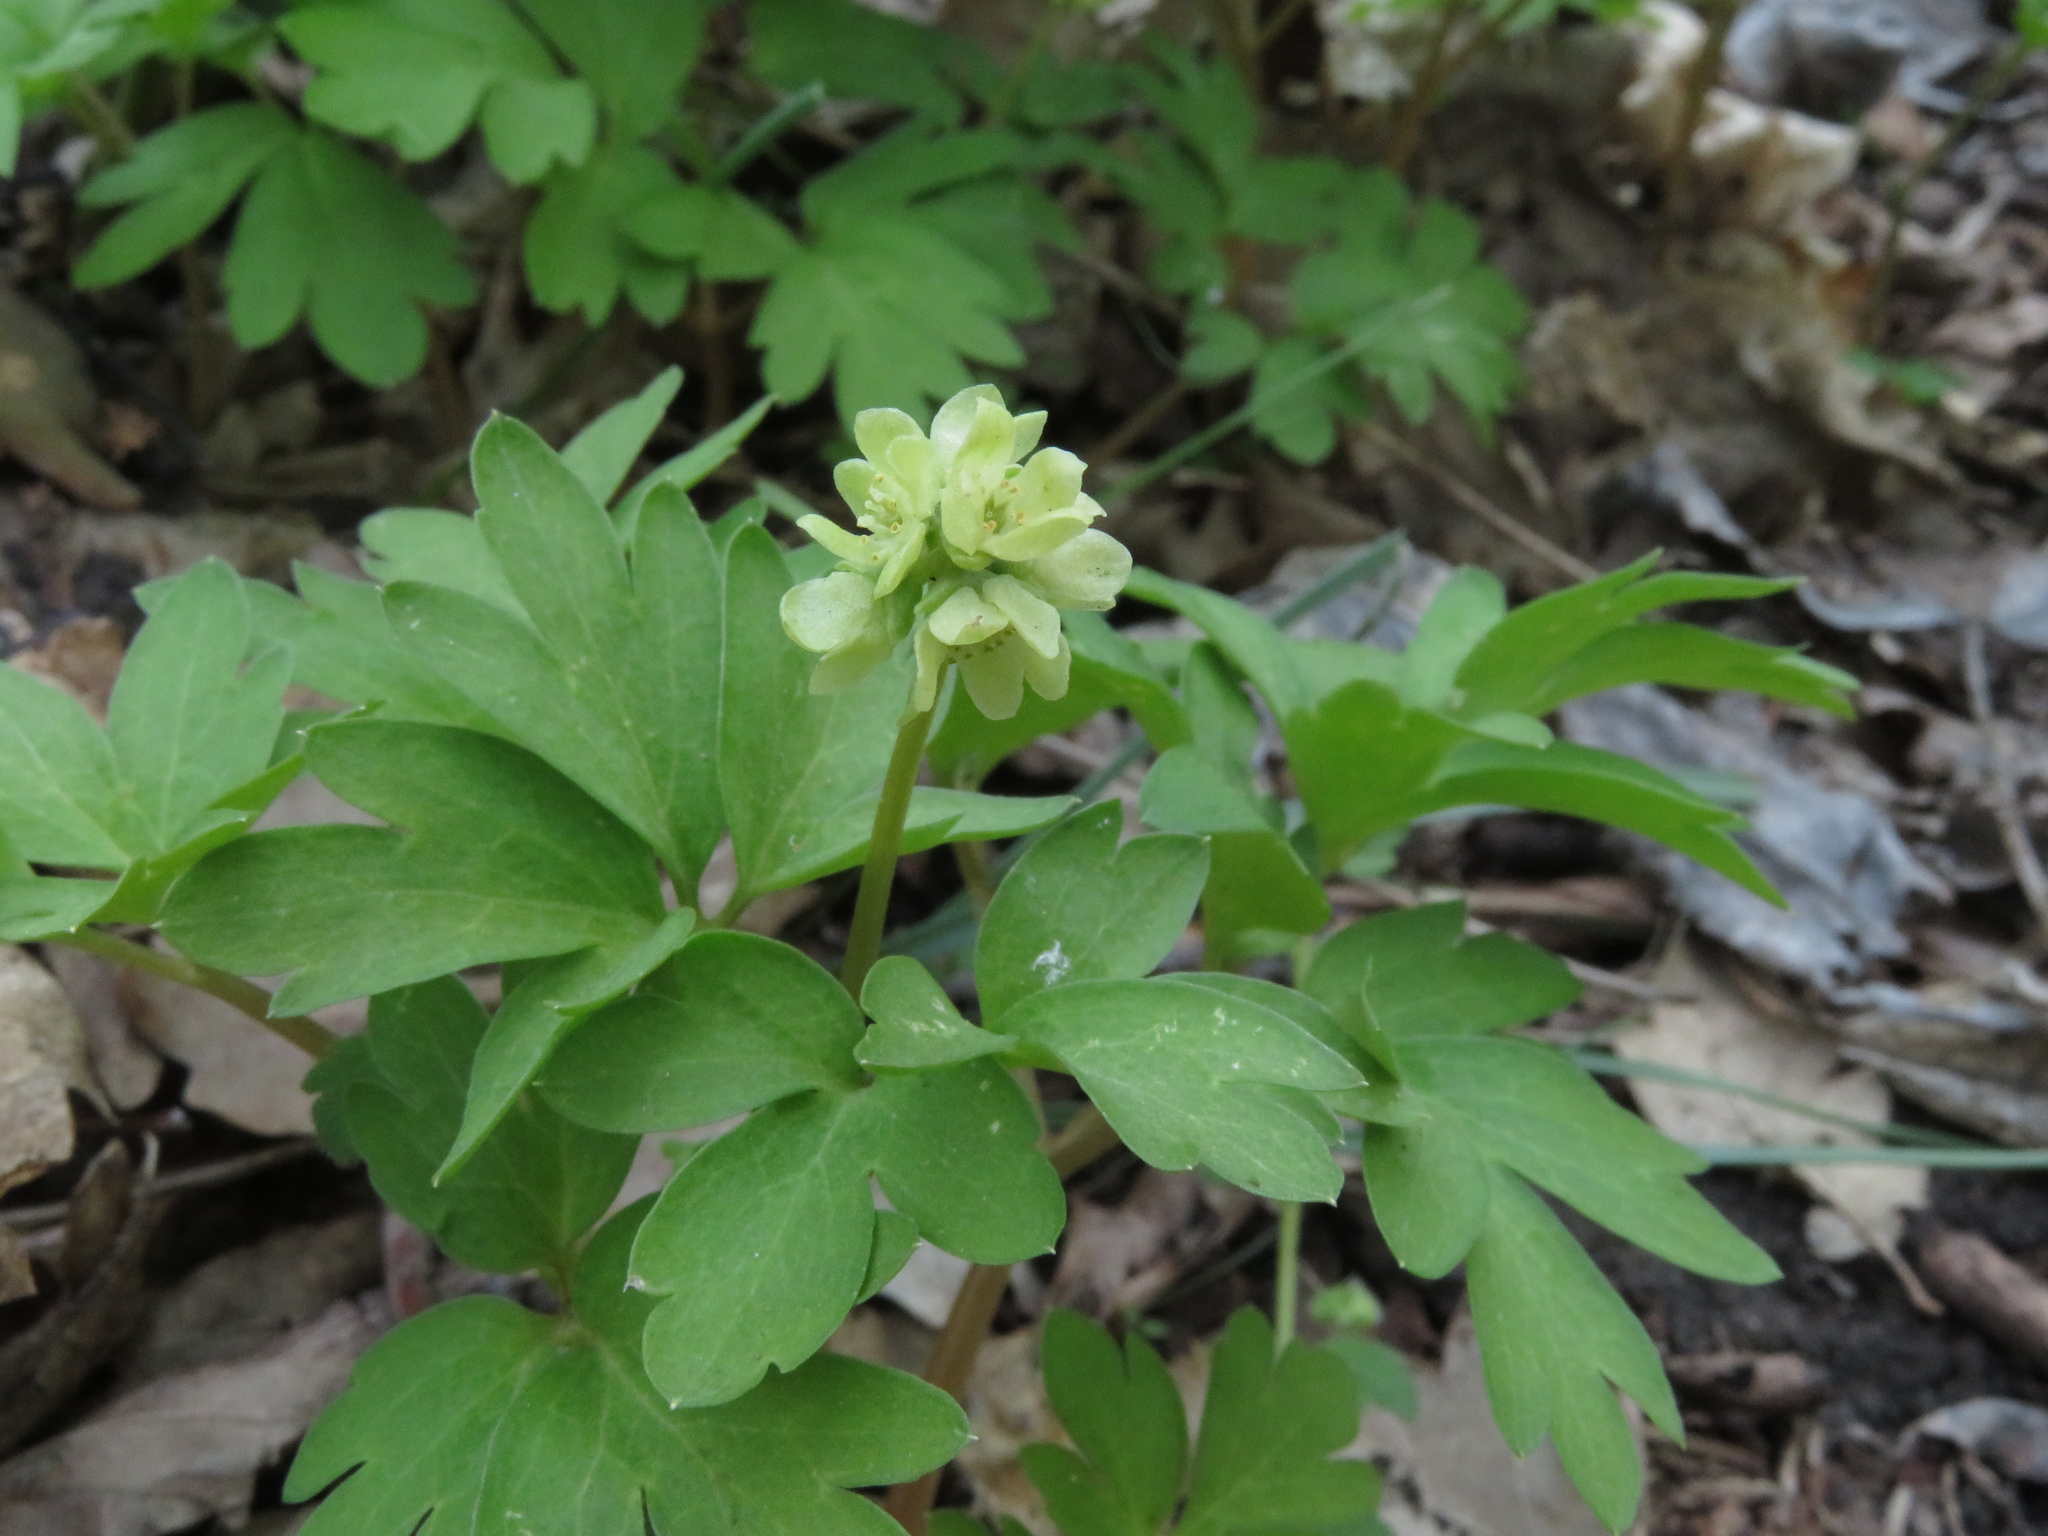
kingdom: Plantae
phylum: Tracheophyta
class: Magnoliopsida
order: Dipsacales
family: Viburnaceae
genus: Adoxa
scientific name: Adoxa moschatellina
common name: Moschatel
